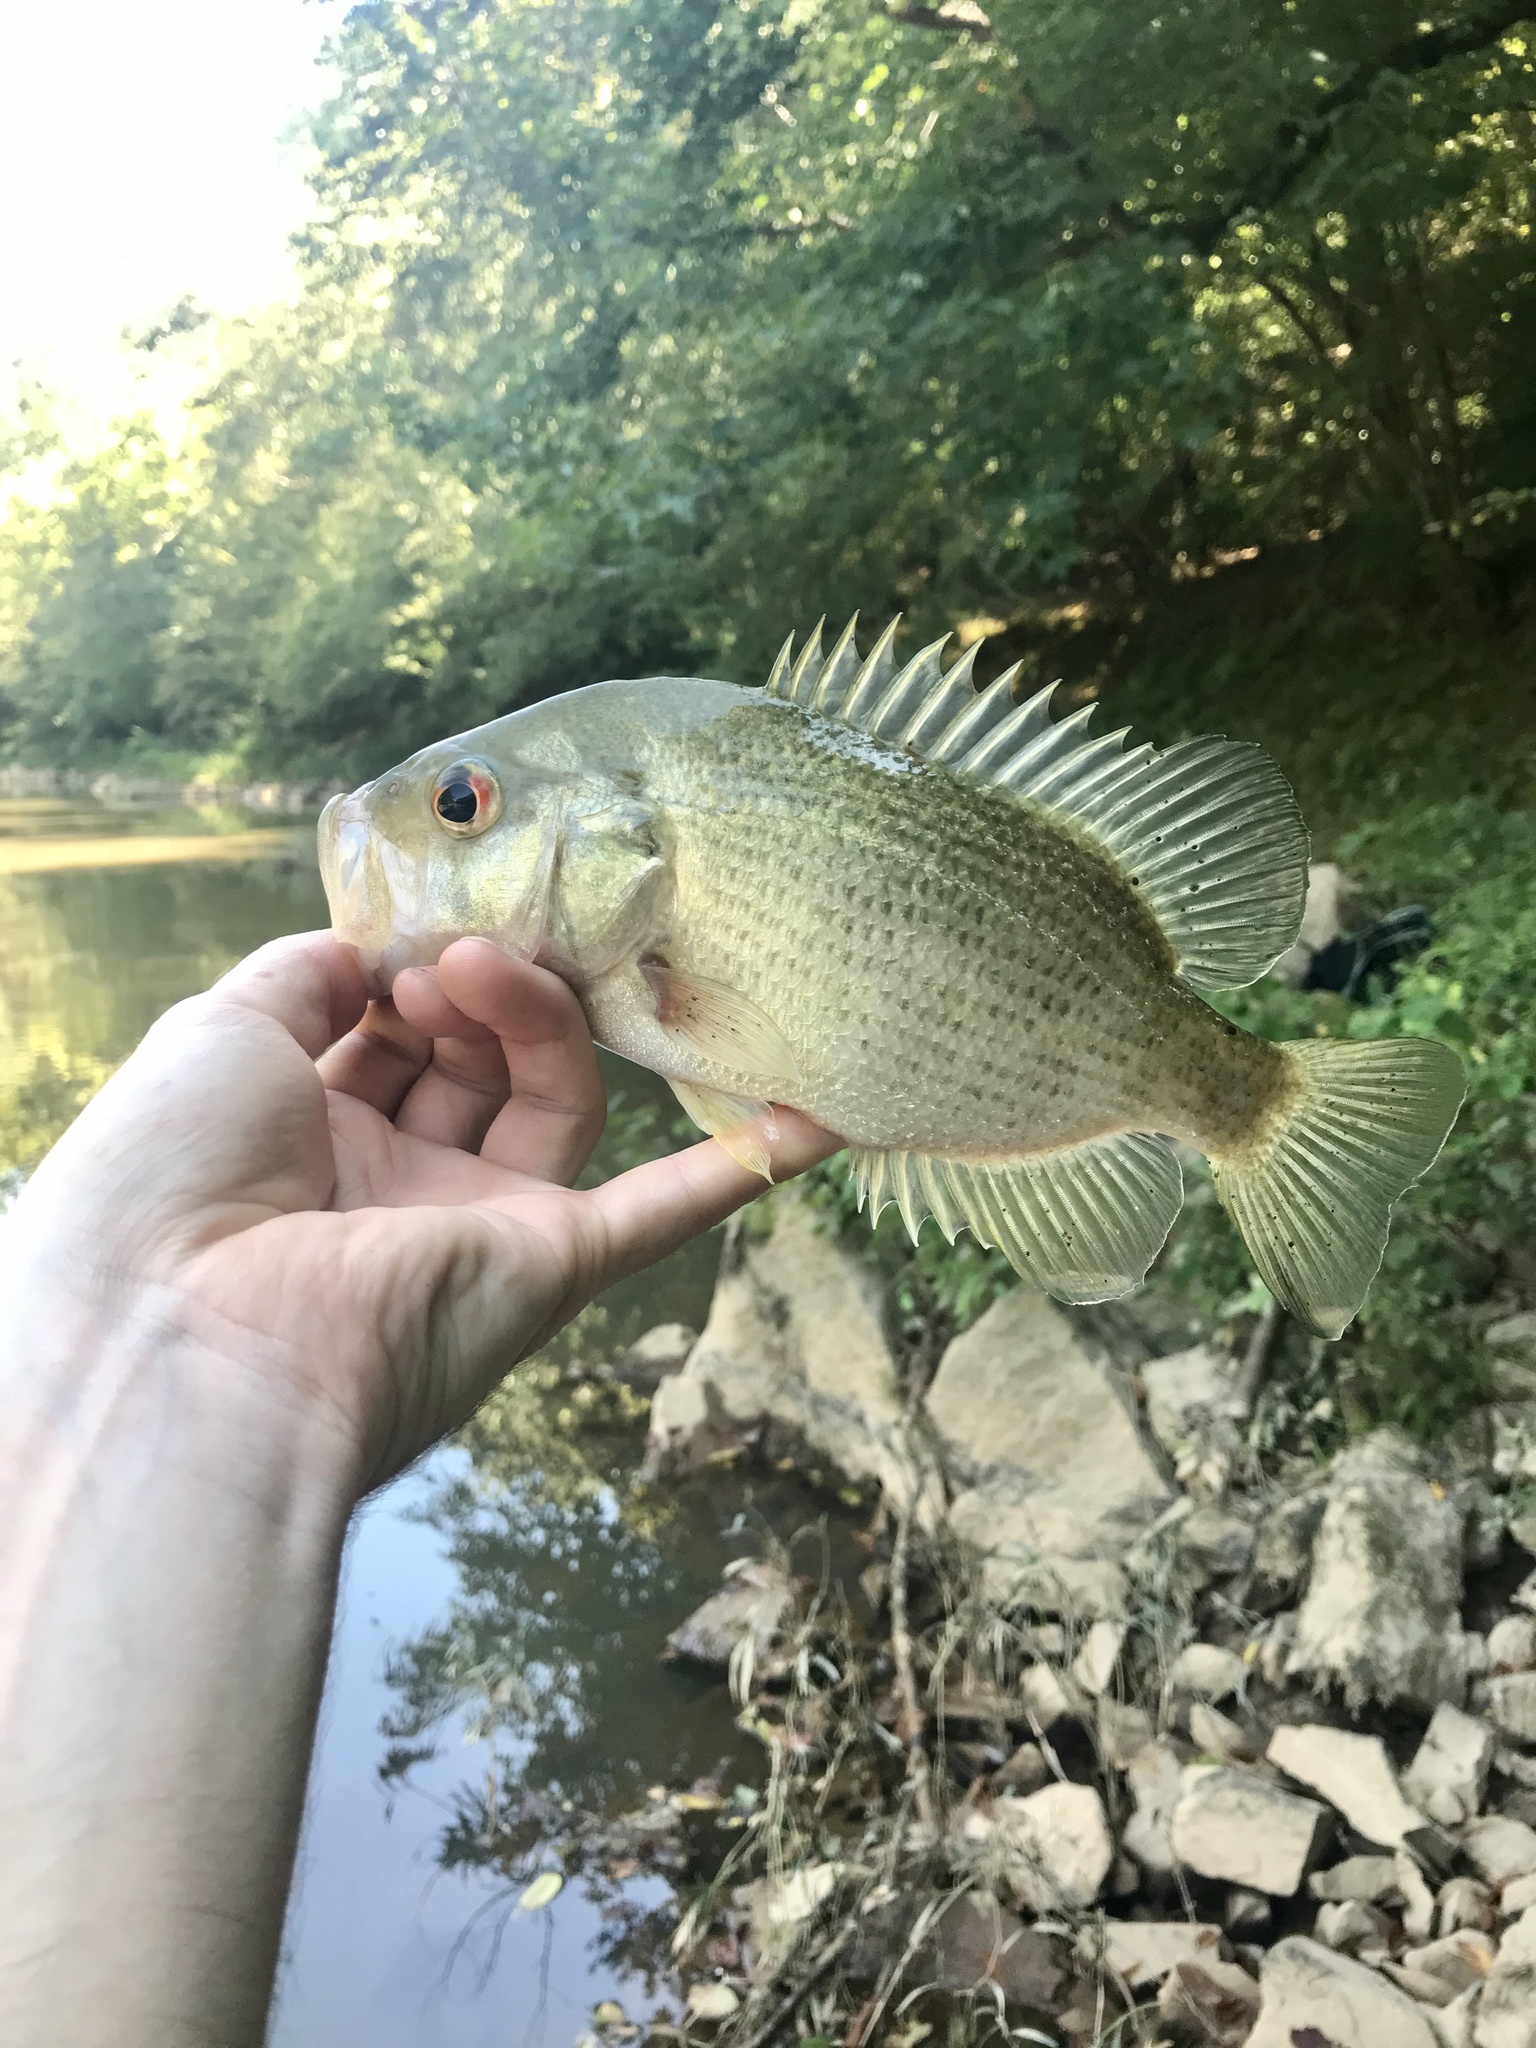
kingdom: Animalia
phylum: Chordata
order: Perciformes
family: Centrarchidae
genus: Ambloplites
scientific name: Ambloplites cavifrons
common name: Roanoke bass
